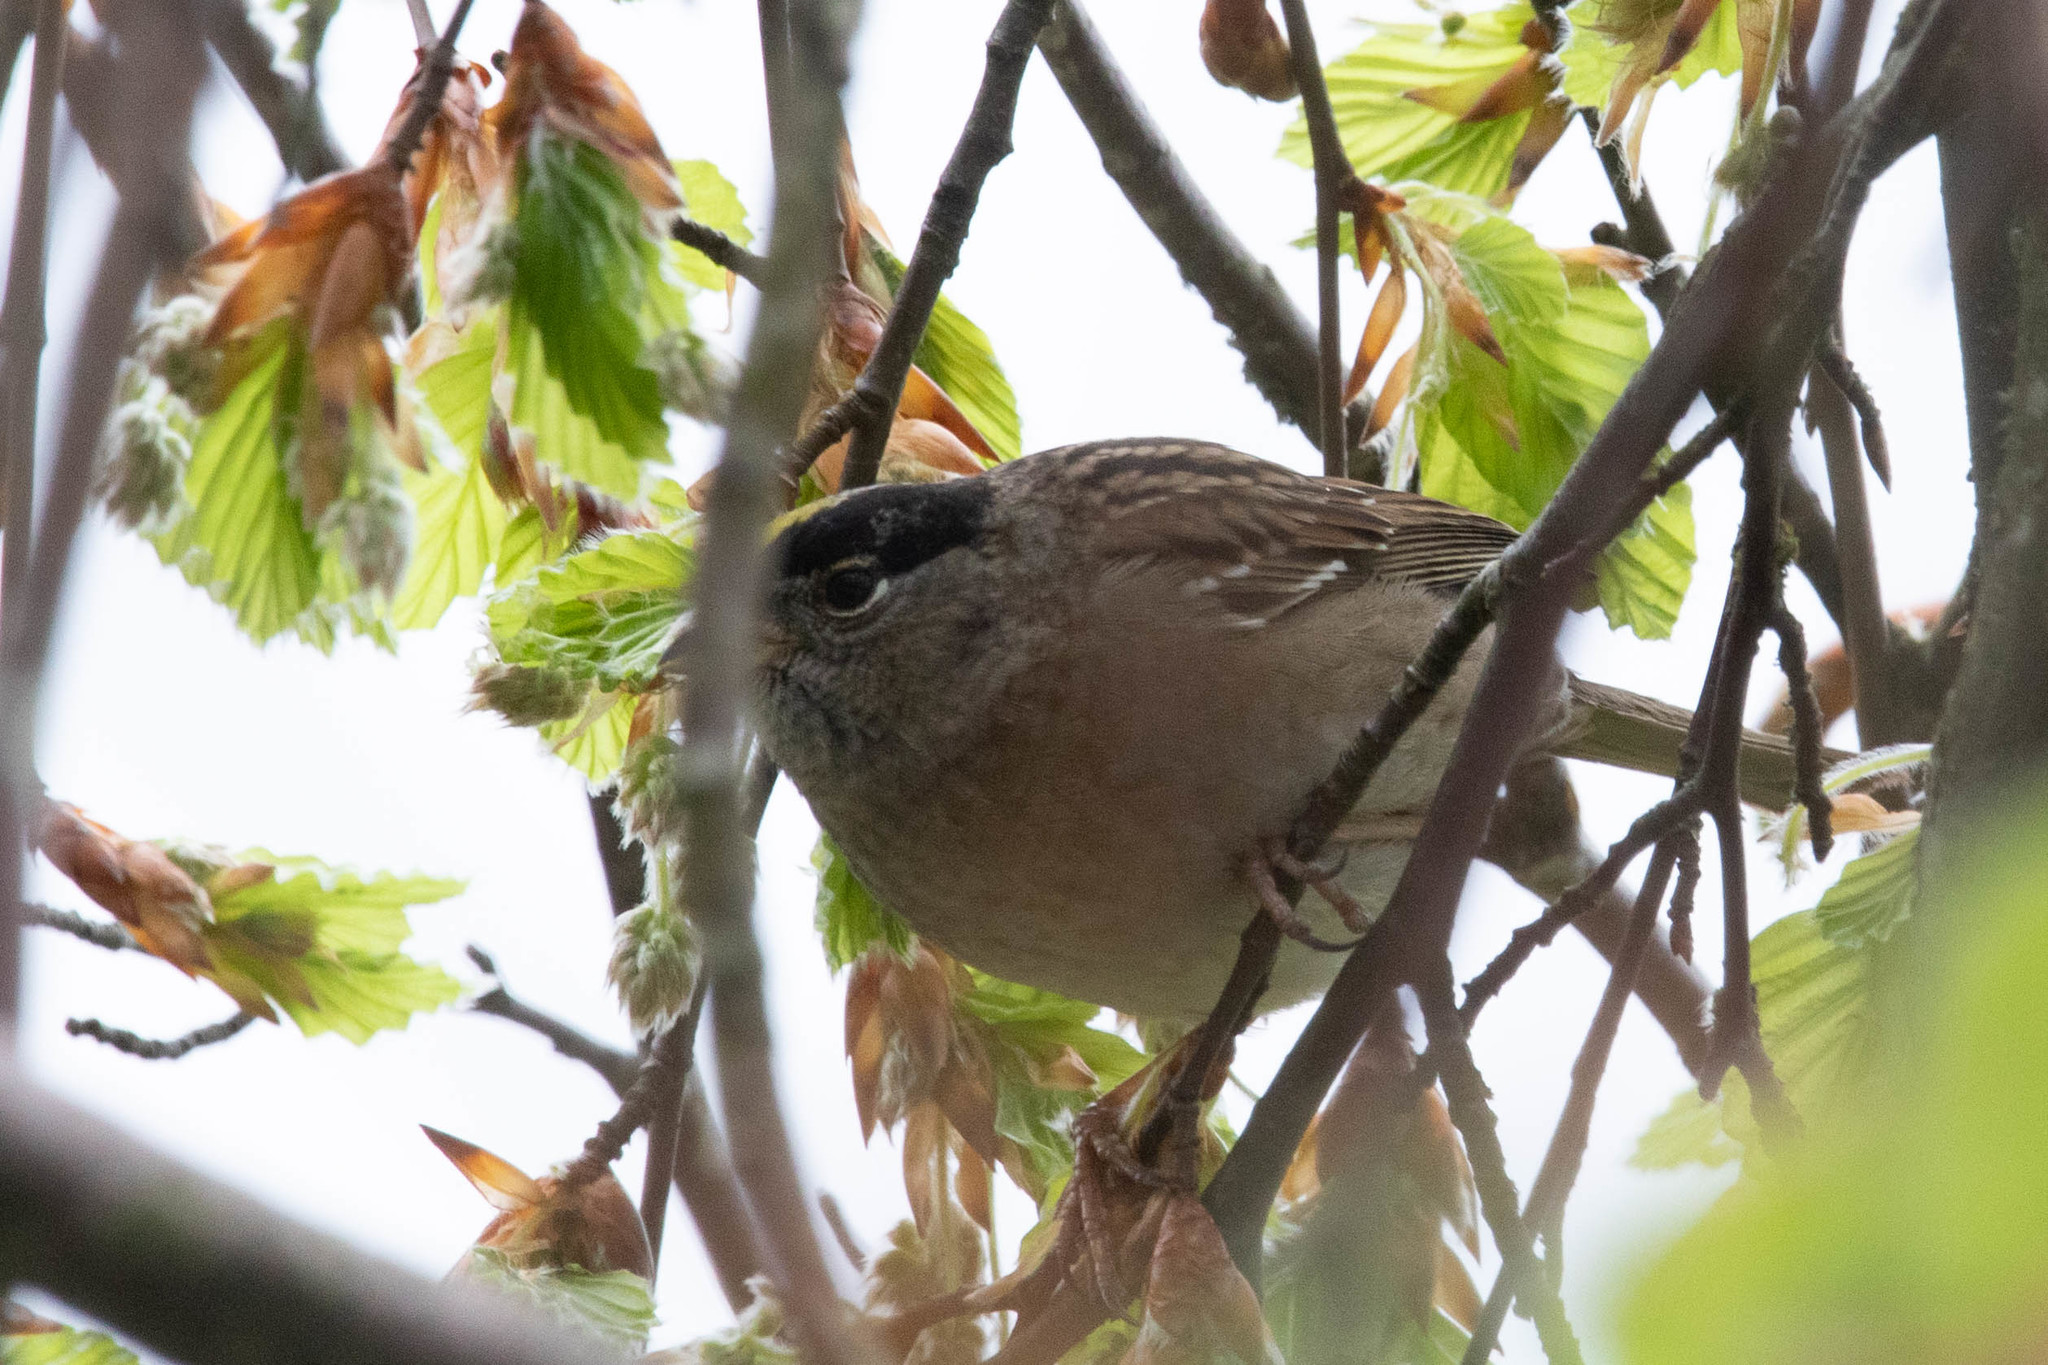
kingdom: Animalia
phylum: Chordata
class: Aves
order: Passeriformes
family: Passerellidae
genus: Zonotrichia
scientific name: Zonotrichia atricapilla
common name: Golden-crowned sparrow
